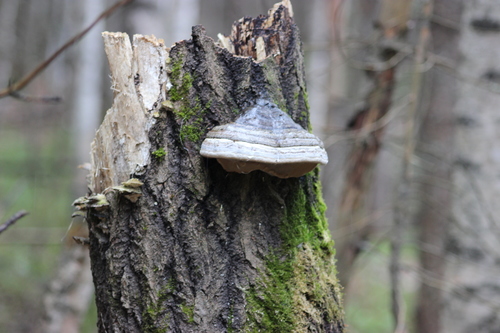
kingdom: Fungi
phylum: Basidiomycota
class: Agaricomycetes
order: Polyporales
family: Polyporaceae
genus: Fomes
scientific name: Fomes fomentarius
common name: Hoof fungus
